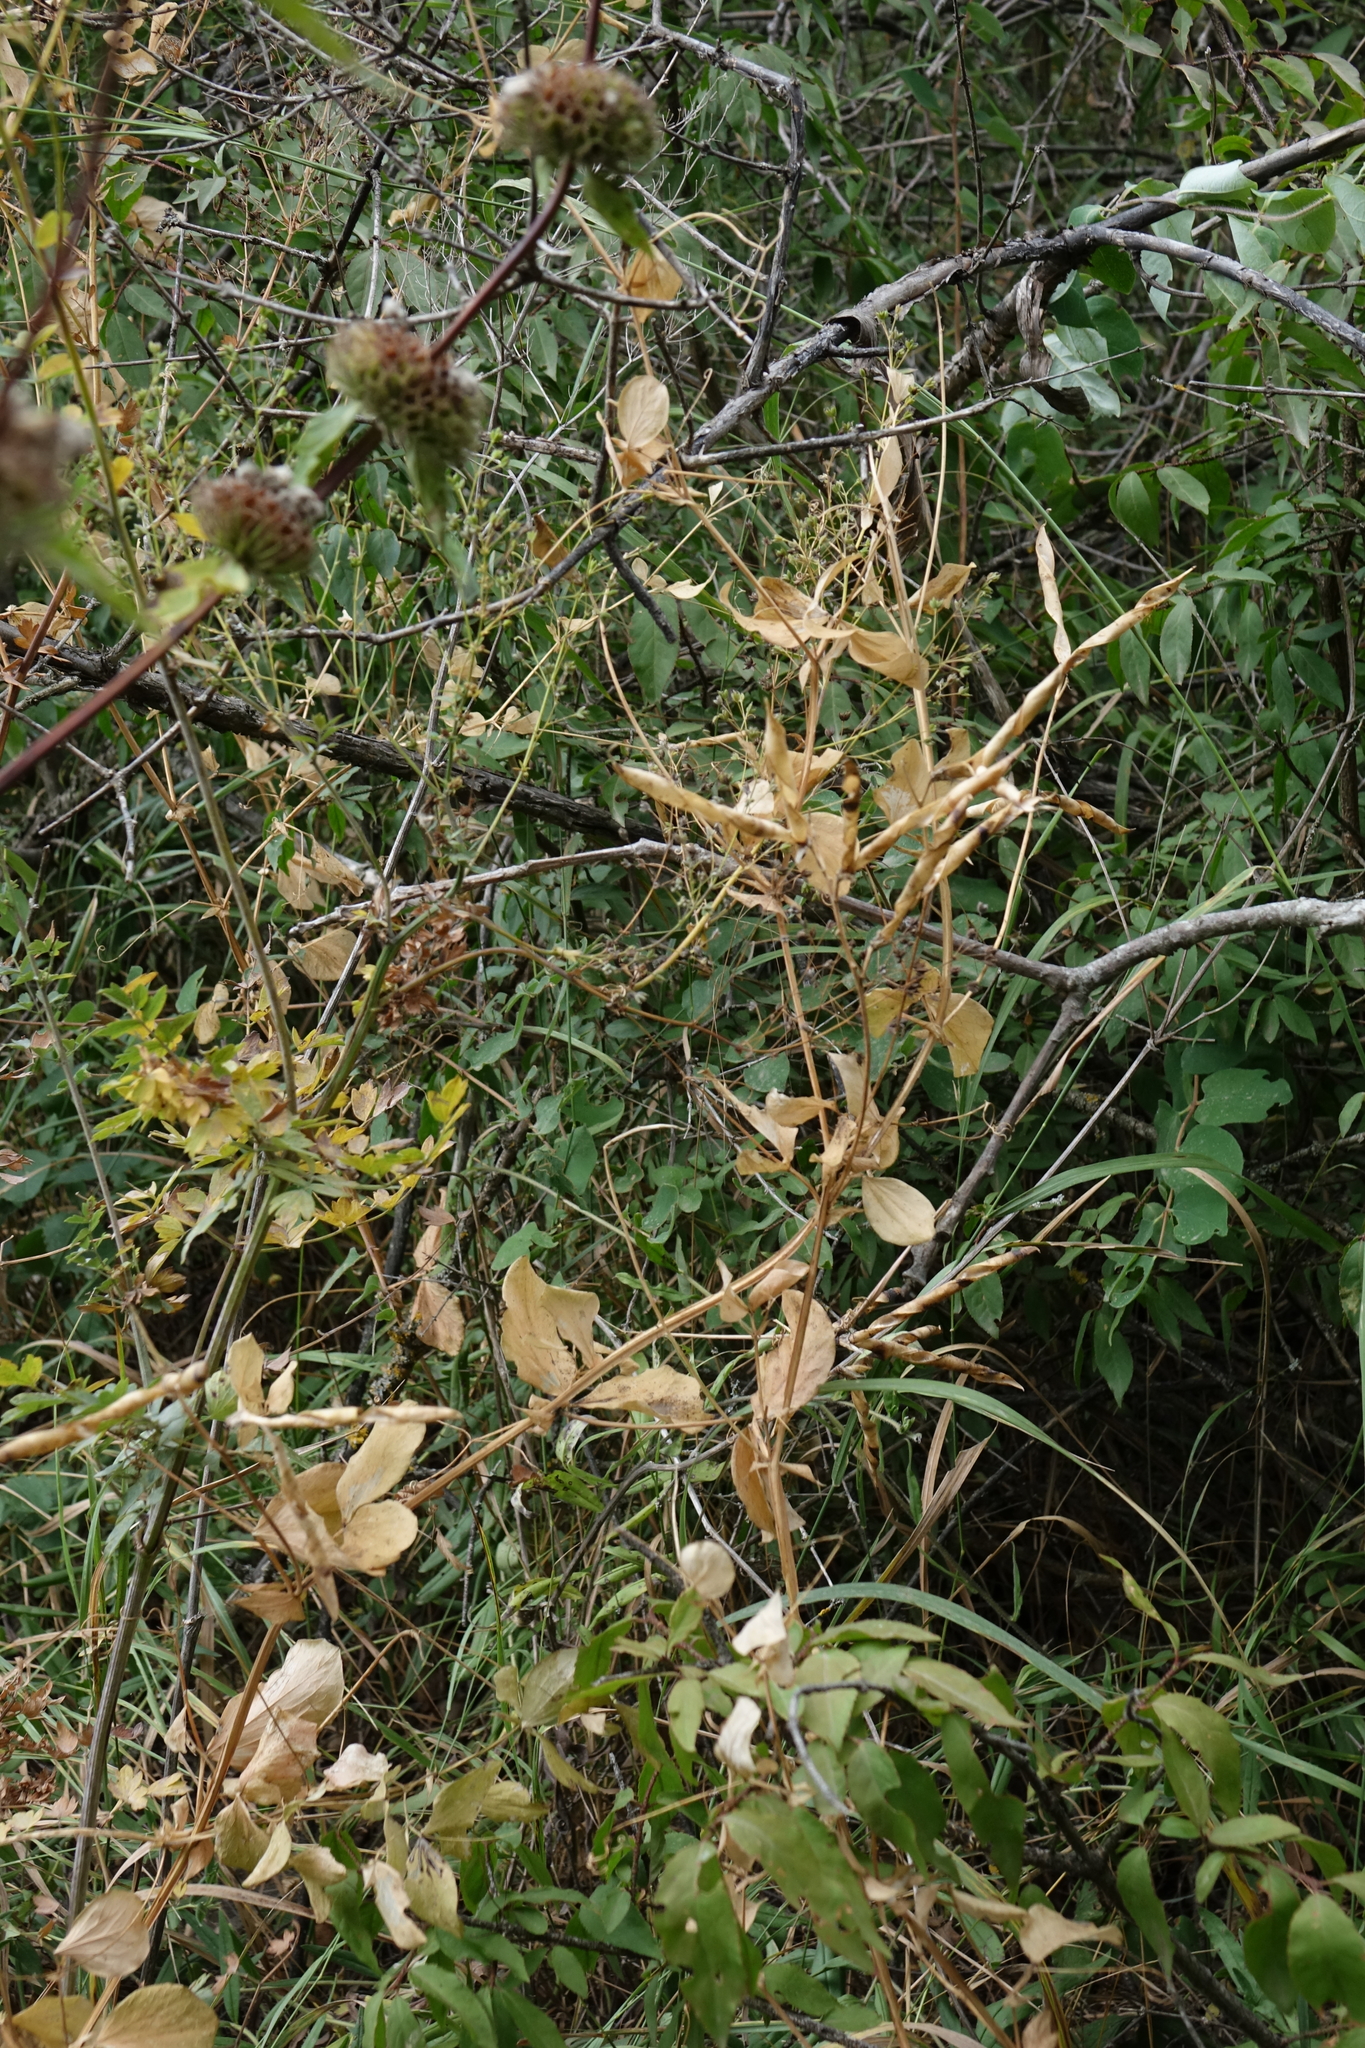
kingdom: Plantae
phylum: Tracheophyta
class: Magnoliopsida
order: Fabales
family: Fabaceae
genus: Lathyrus
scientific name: Lathyrus miniatus
